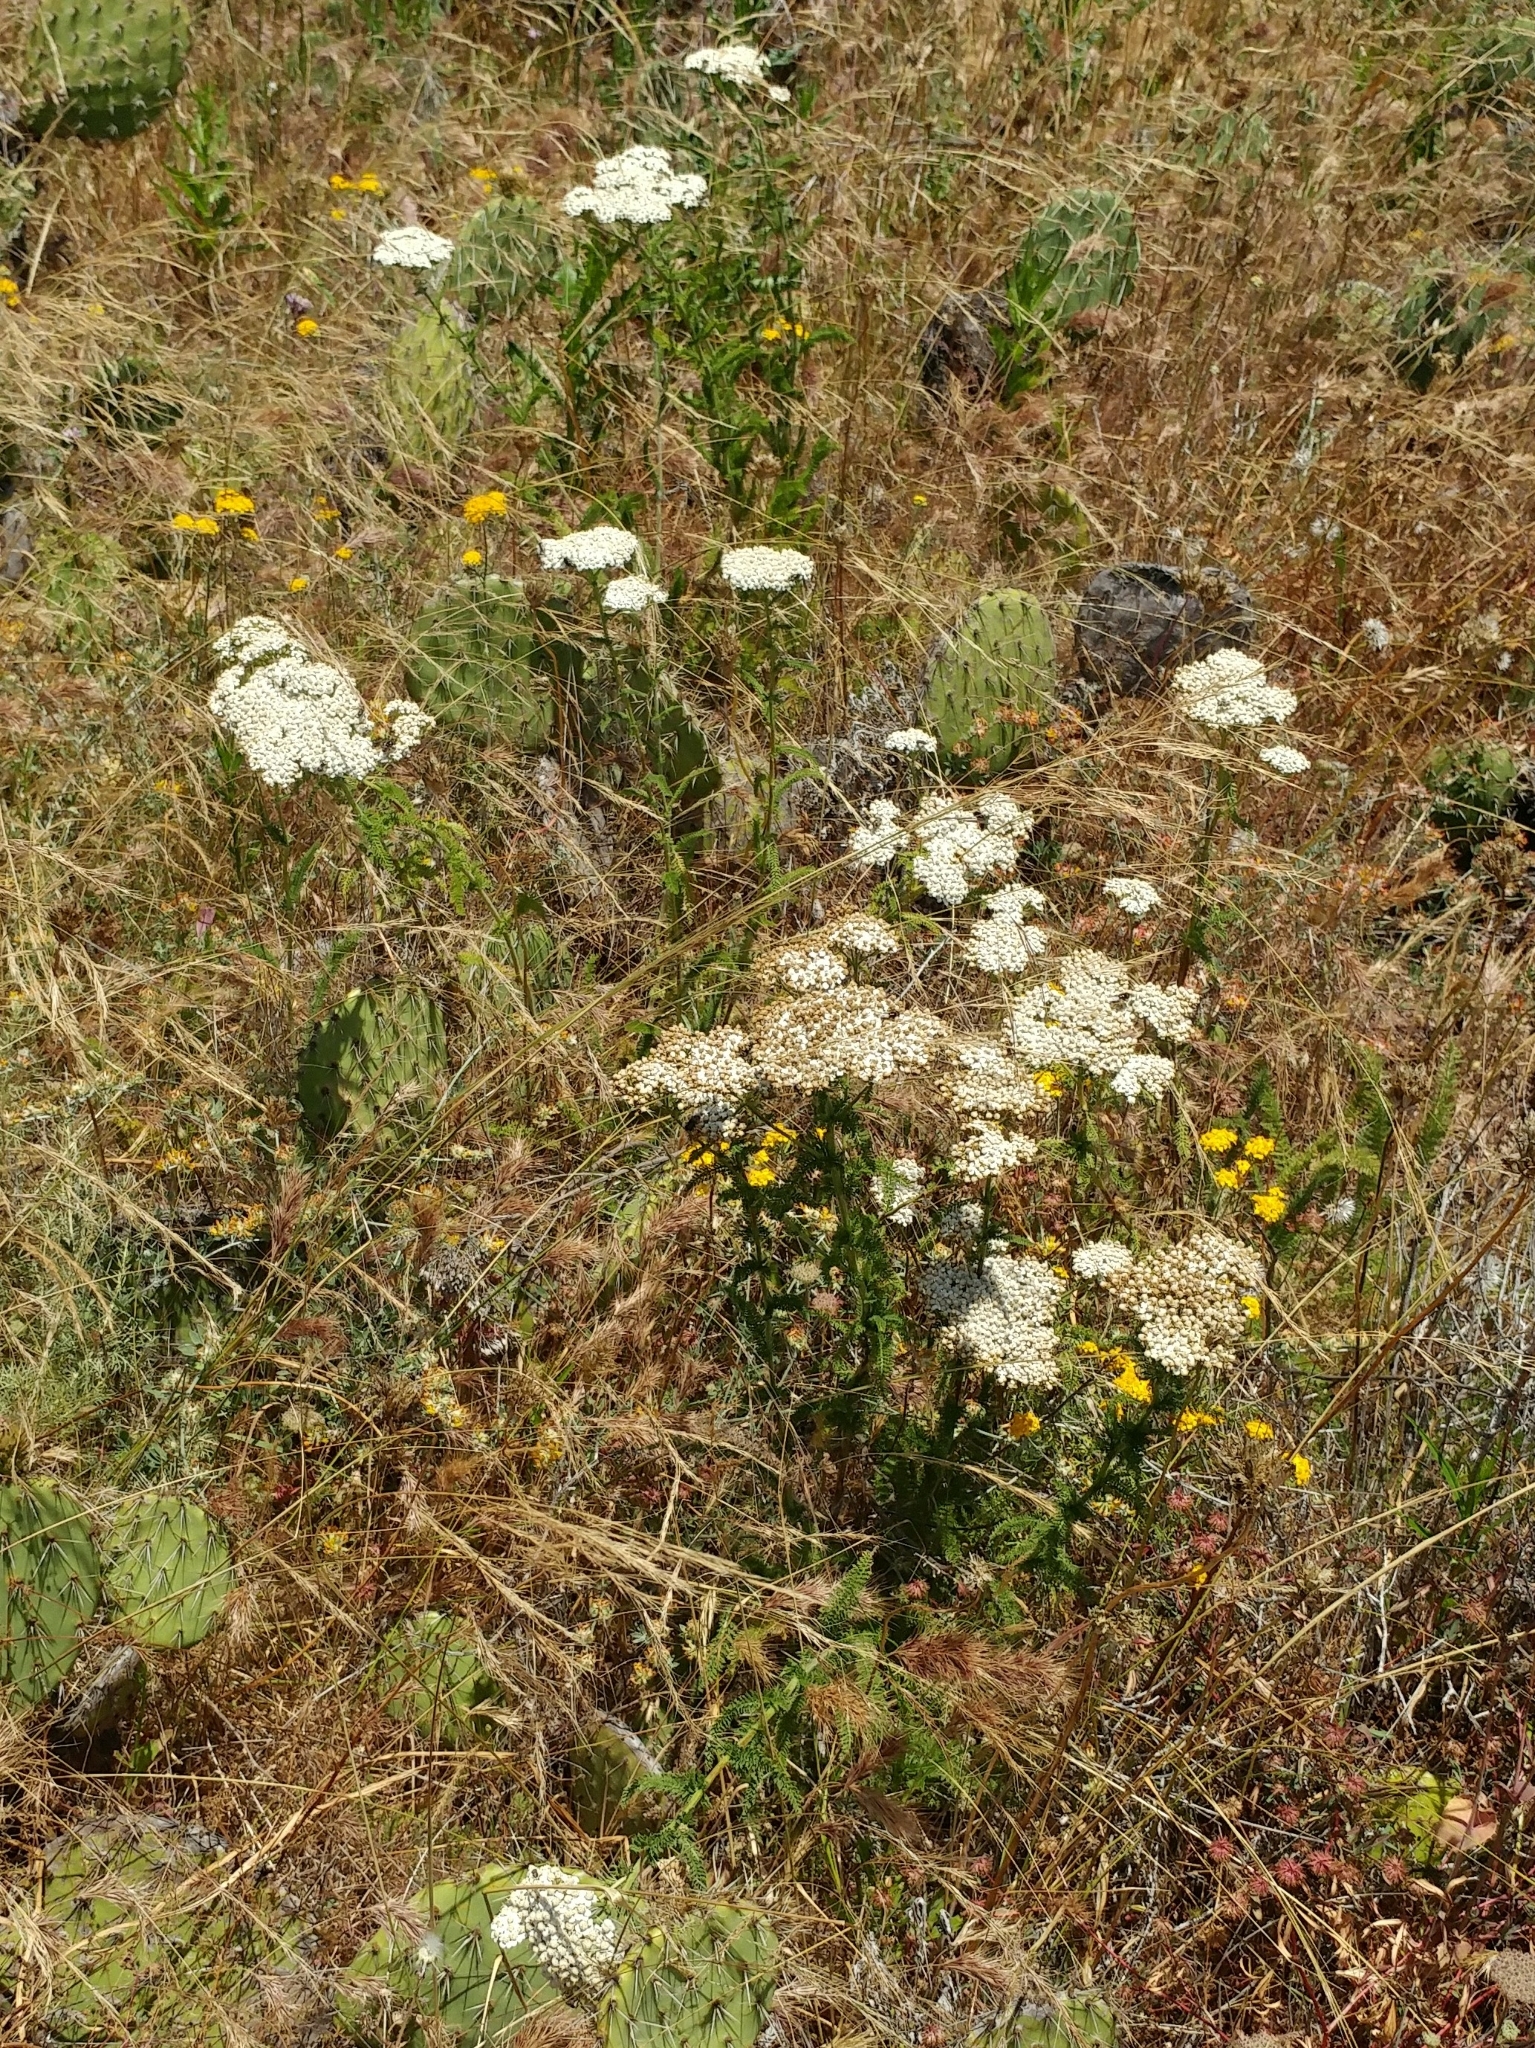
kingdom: Plantae
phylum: Tracheophyta
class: Magnoliopsida
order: Asterales
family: Asteraceae
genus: Achillea
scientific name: Achillea millefolium
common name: Yarrow
